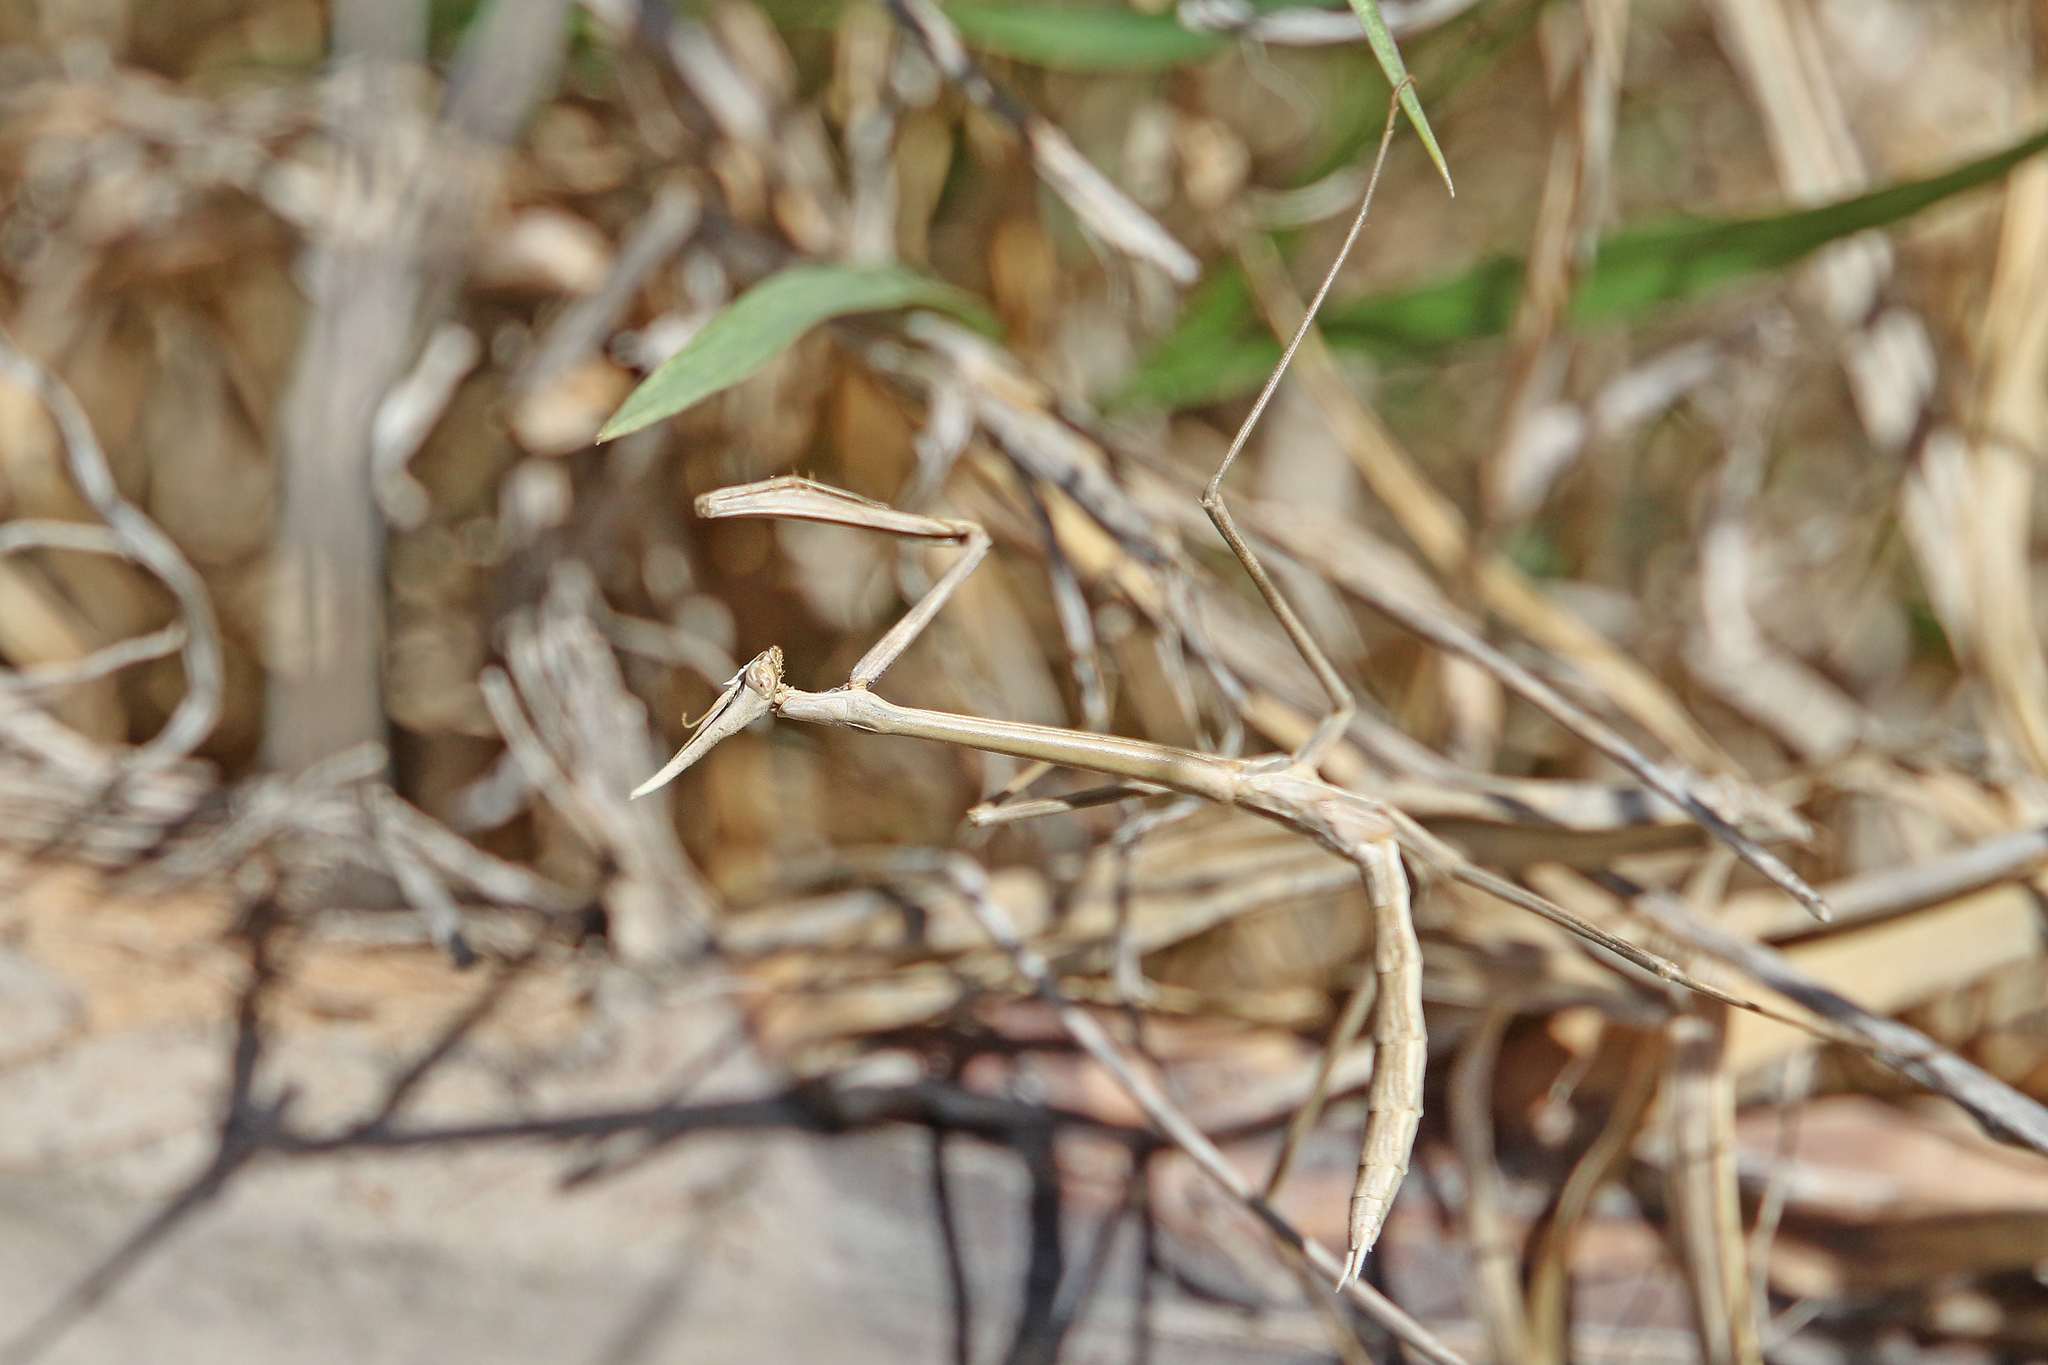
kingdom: Animalia
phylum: Arthropoda
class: Insecta
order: Mantodea
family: Empusidae
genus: Hypsicorypha
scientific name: Hypsicorypha gracilis
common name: Sublime conehead mantis
